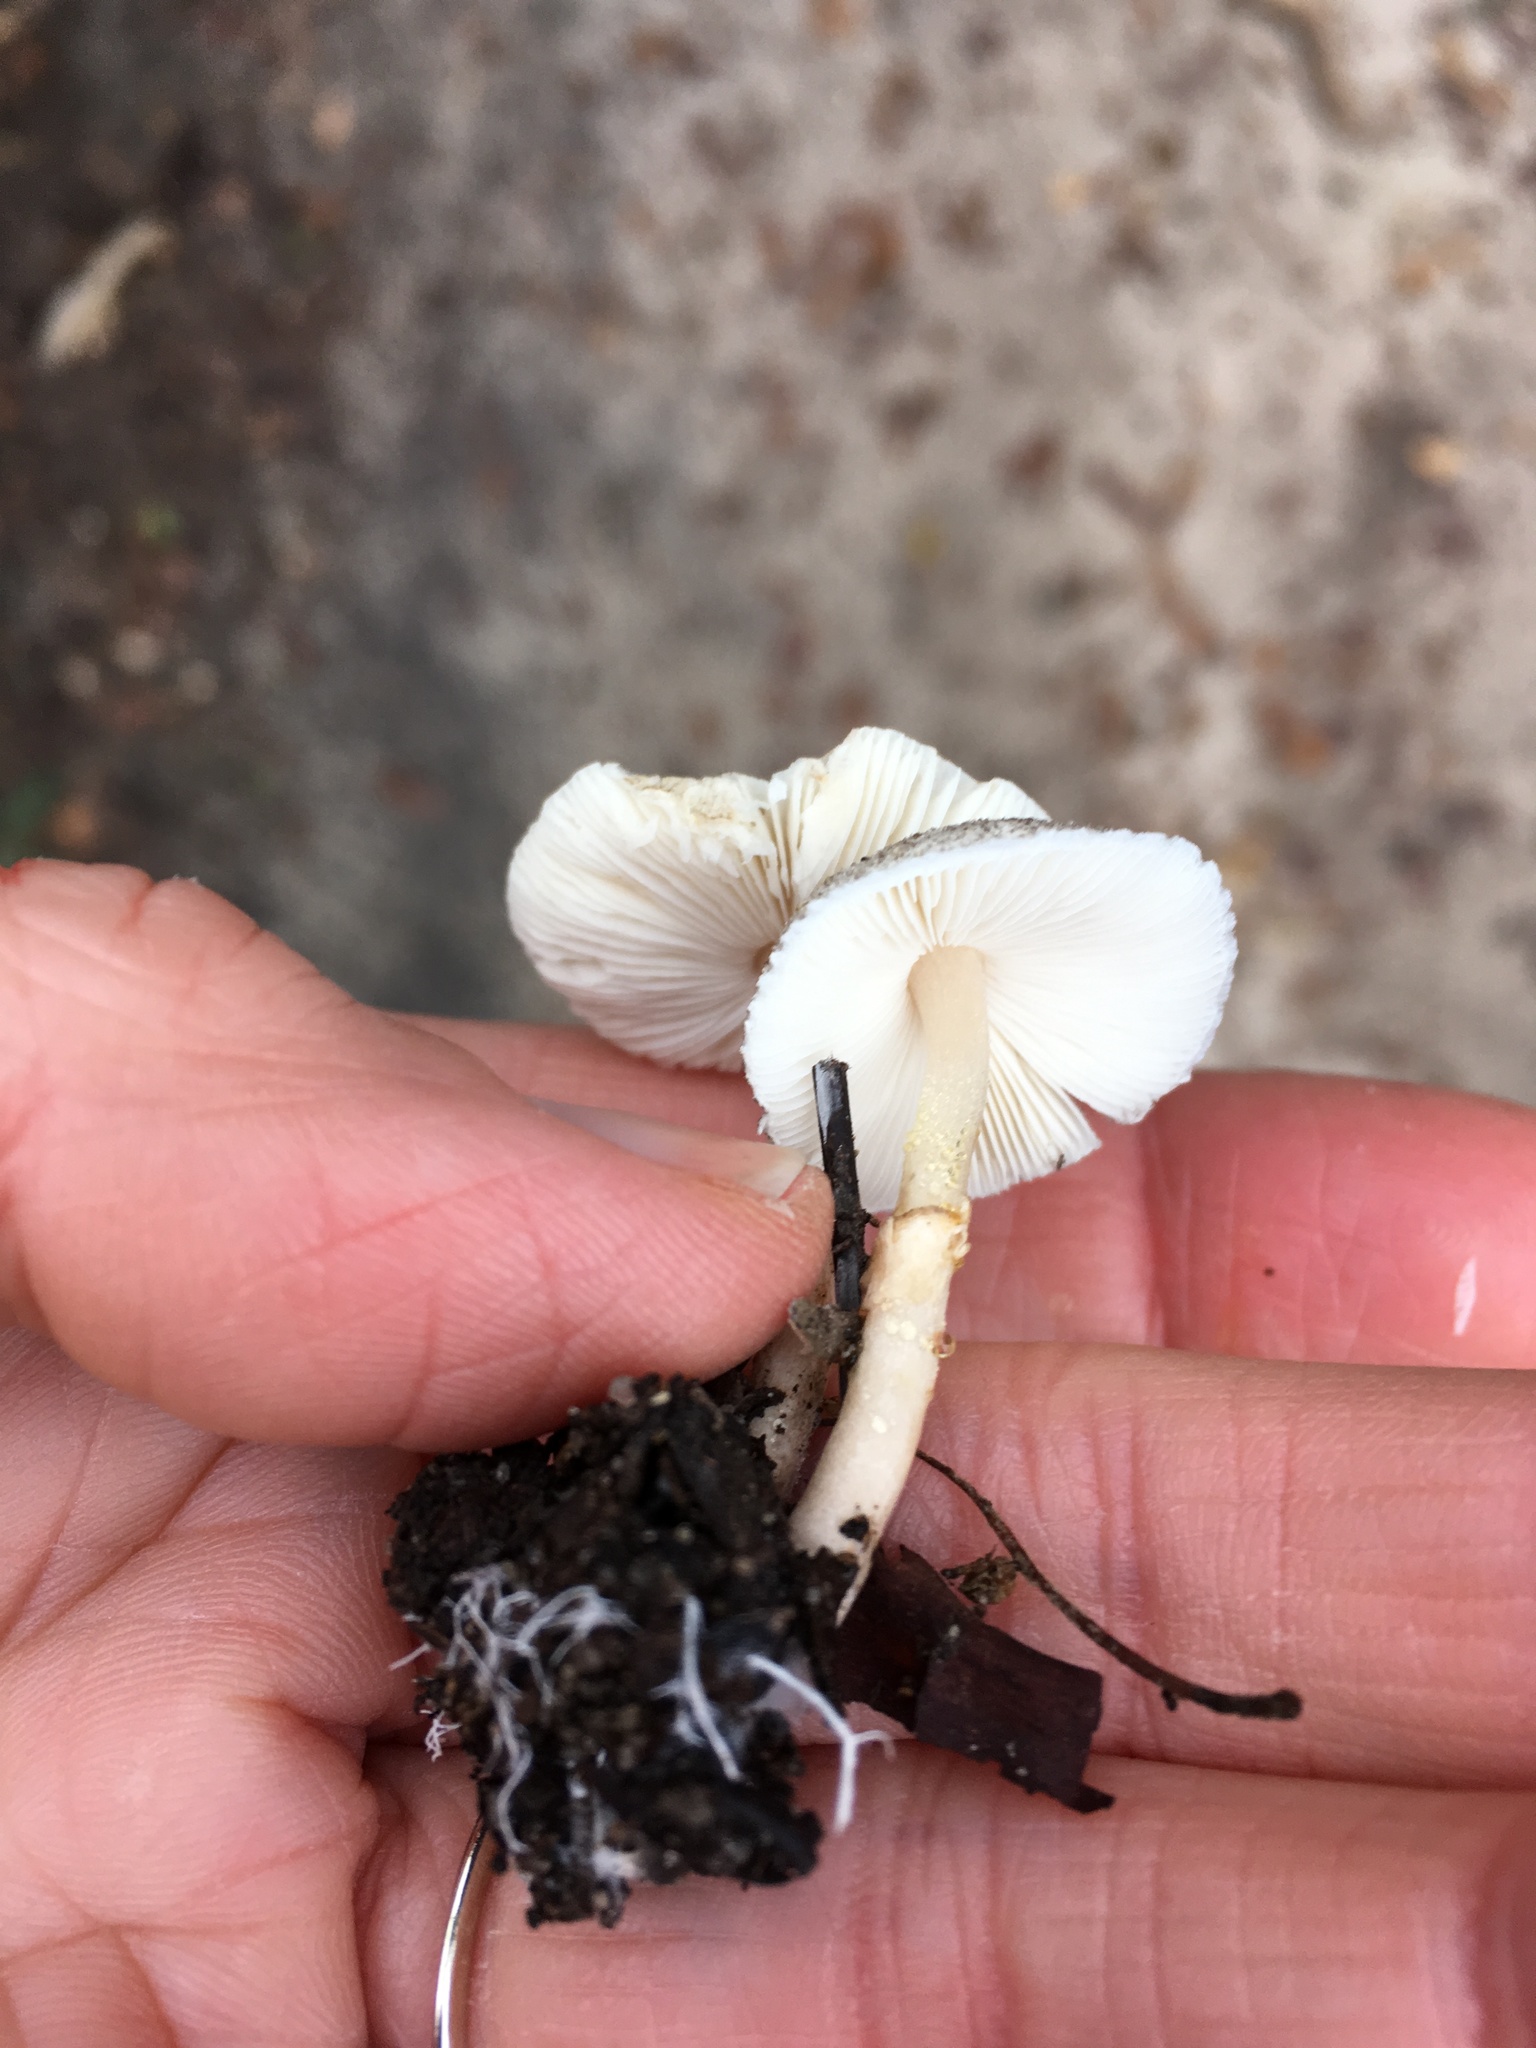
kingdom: Fungi
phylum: Basidiomycota
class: Agaricomycetes
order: Agaricales
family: Agaricaceae
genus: Lepiota
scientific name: Lepiota atrodisca
